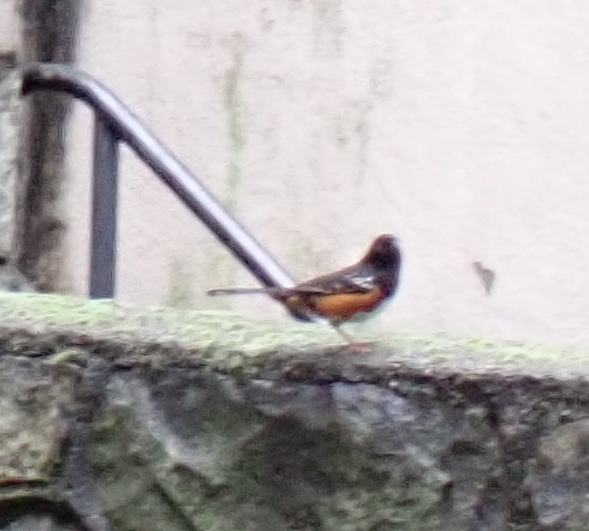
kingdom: Animalia
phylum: Chordata
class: Aves
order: Passeriformes
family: Passerellidae
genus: Pipilo
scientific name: Pipilo maculatus
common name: Spotted towhee
